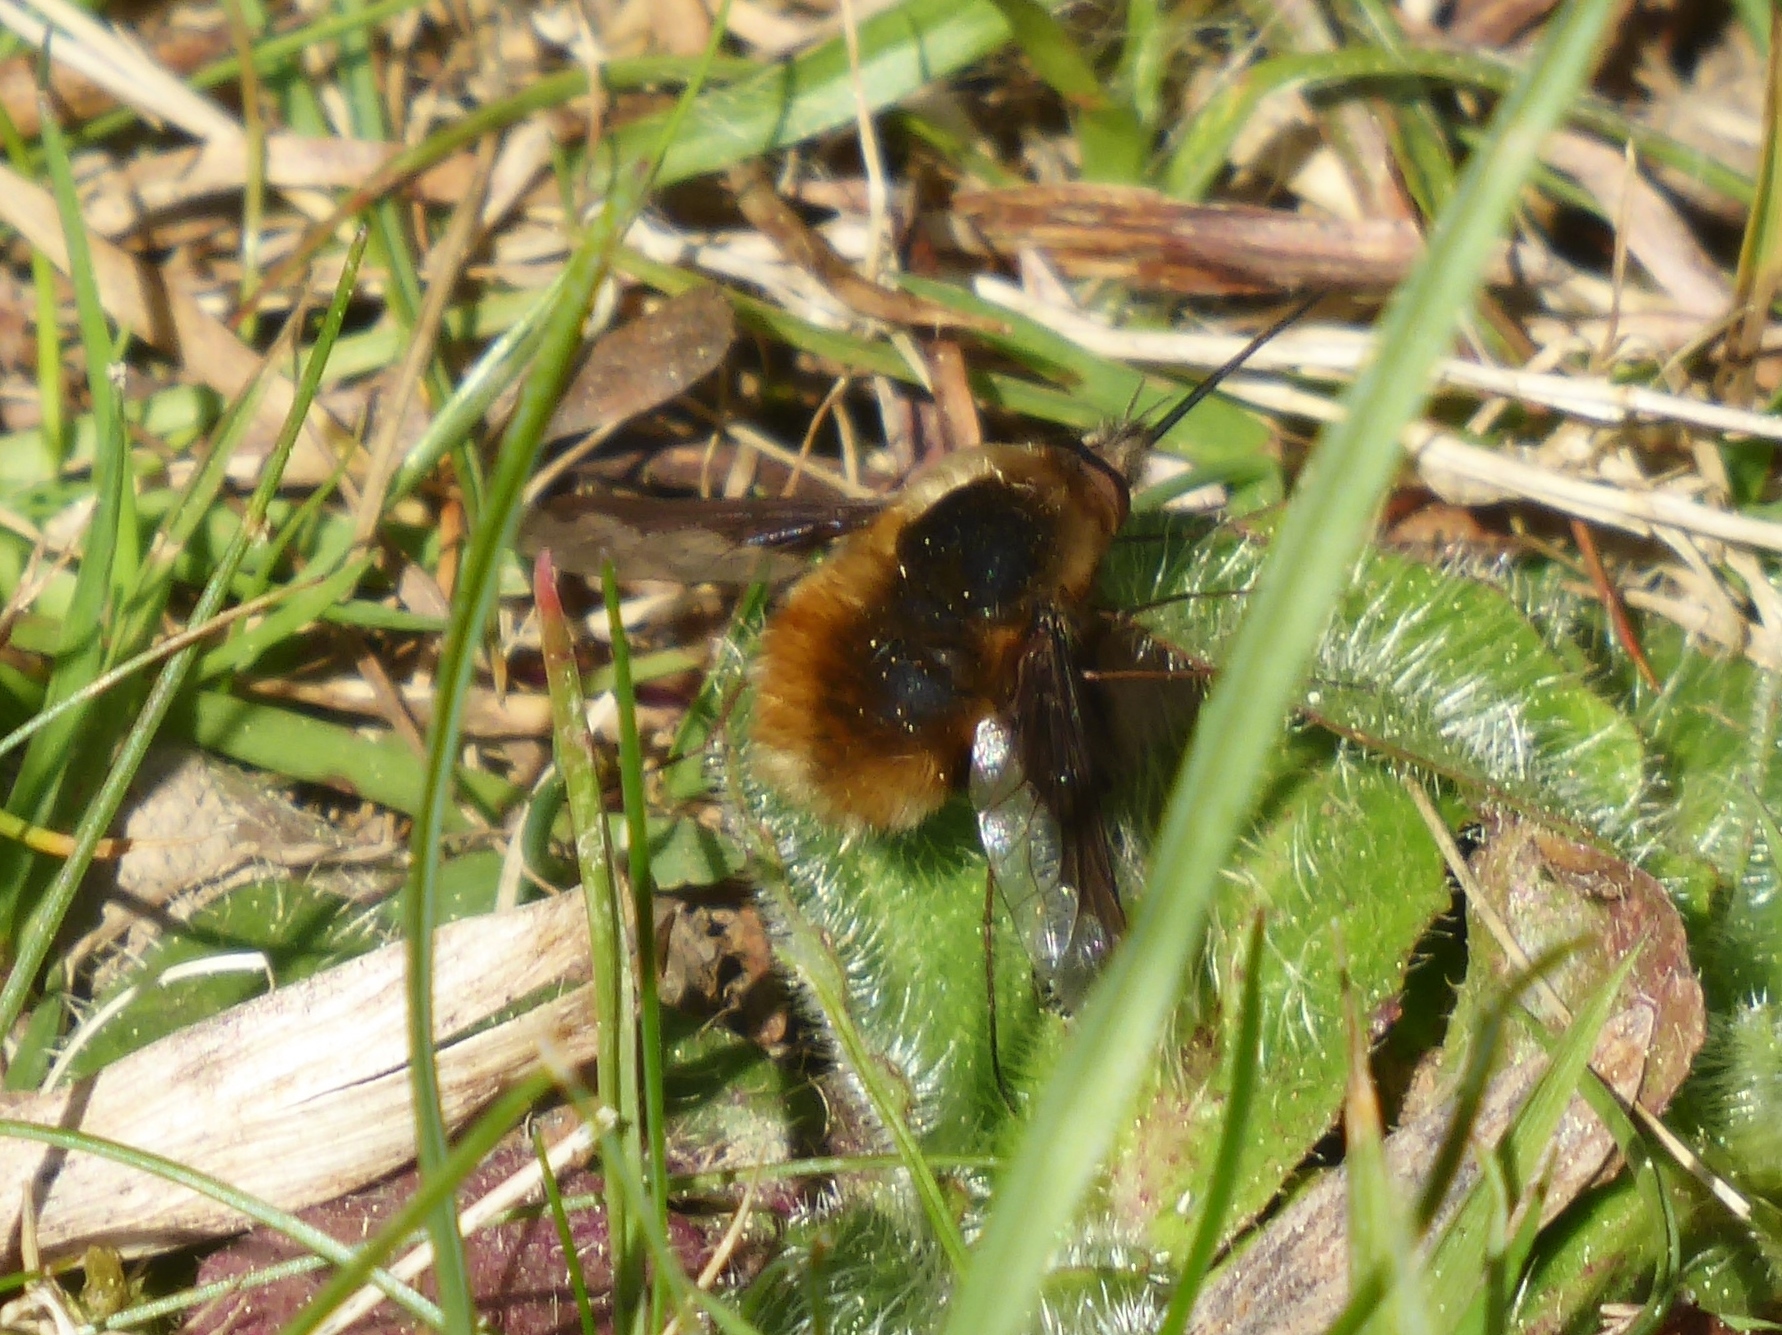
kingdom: Animalia
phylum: Arthropoda
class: Insecta
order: Diptera
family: Bombyliidae
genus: Bombylius
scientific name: Bombylius major
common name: Bee fly
